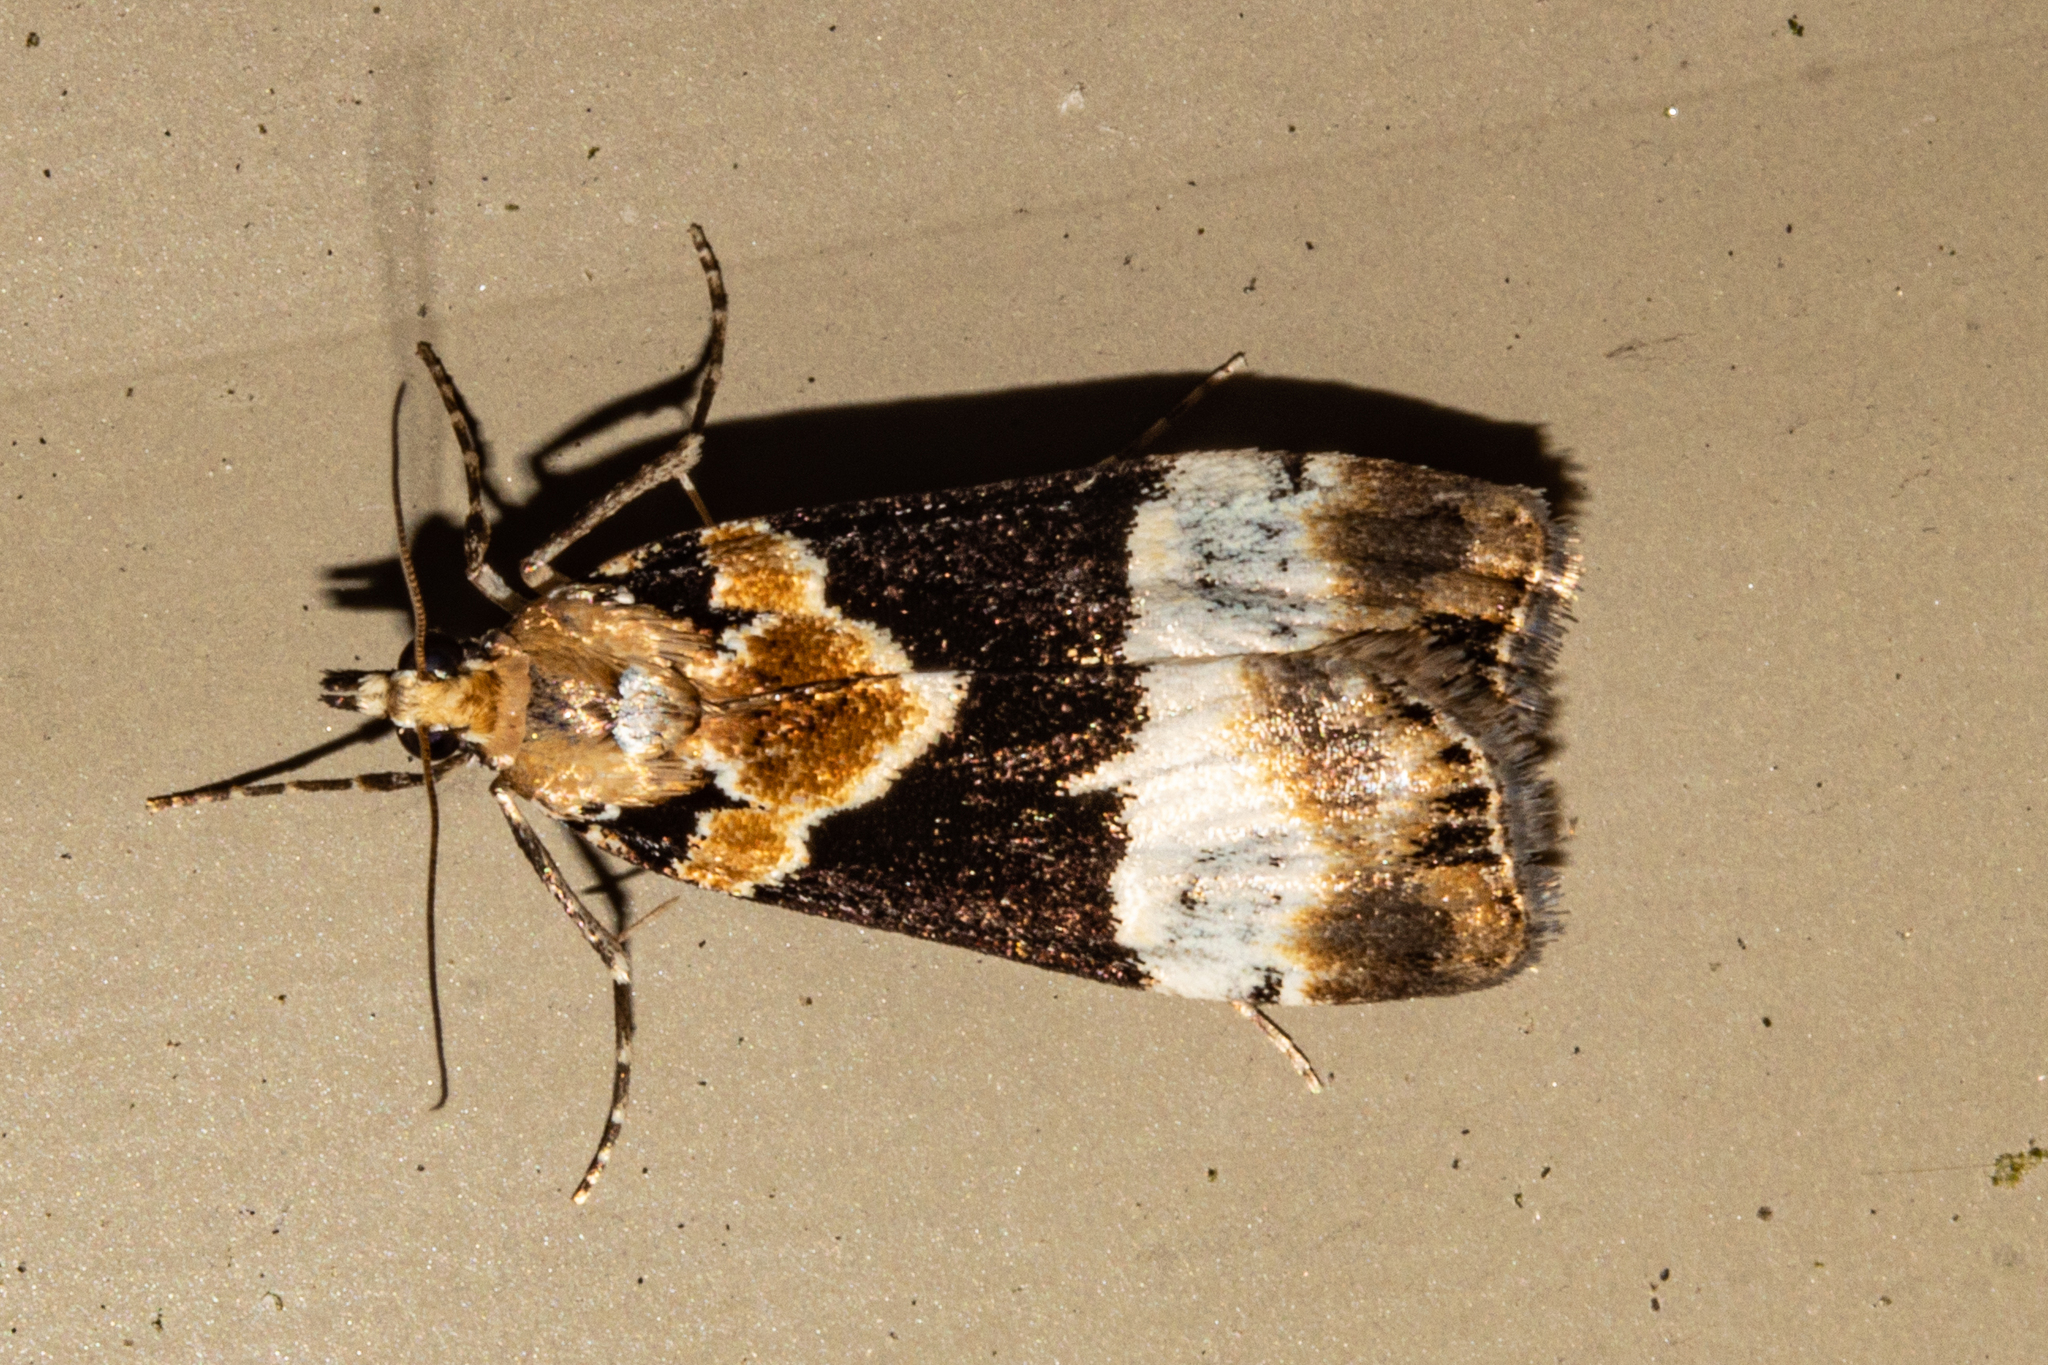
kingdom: Animalia
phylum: Arthropoda
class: Insecta
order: Lepidoptera
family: Crambidae
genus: Eudonia
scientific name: Eudonia aspidota
